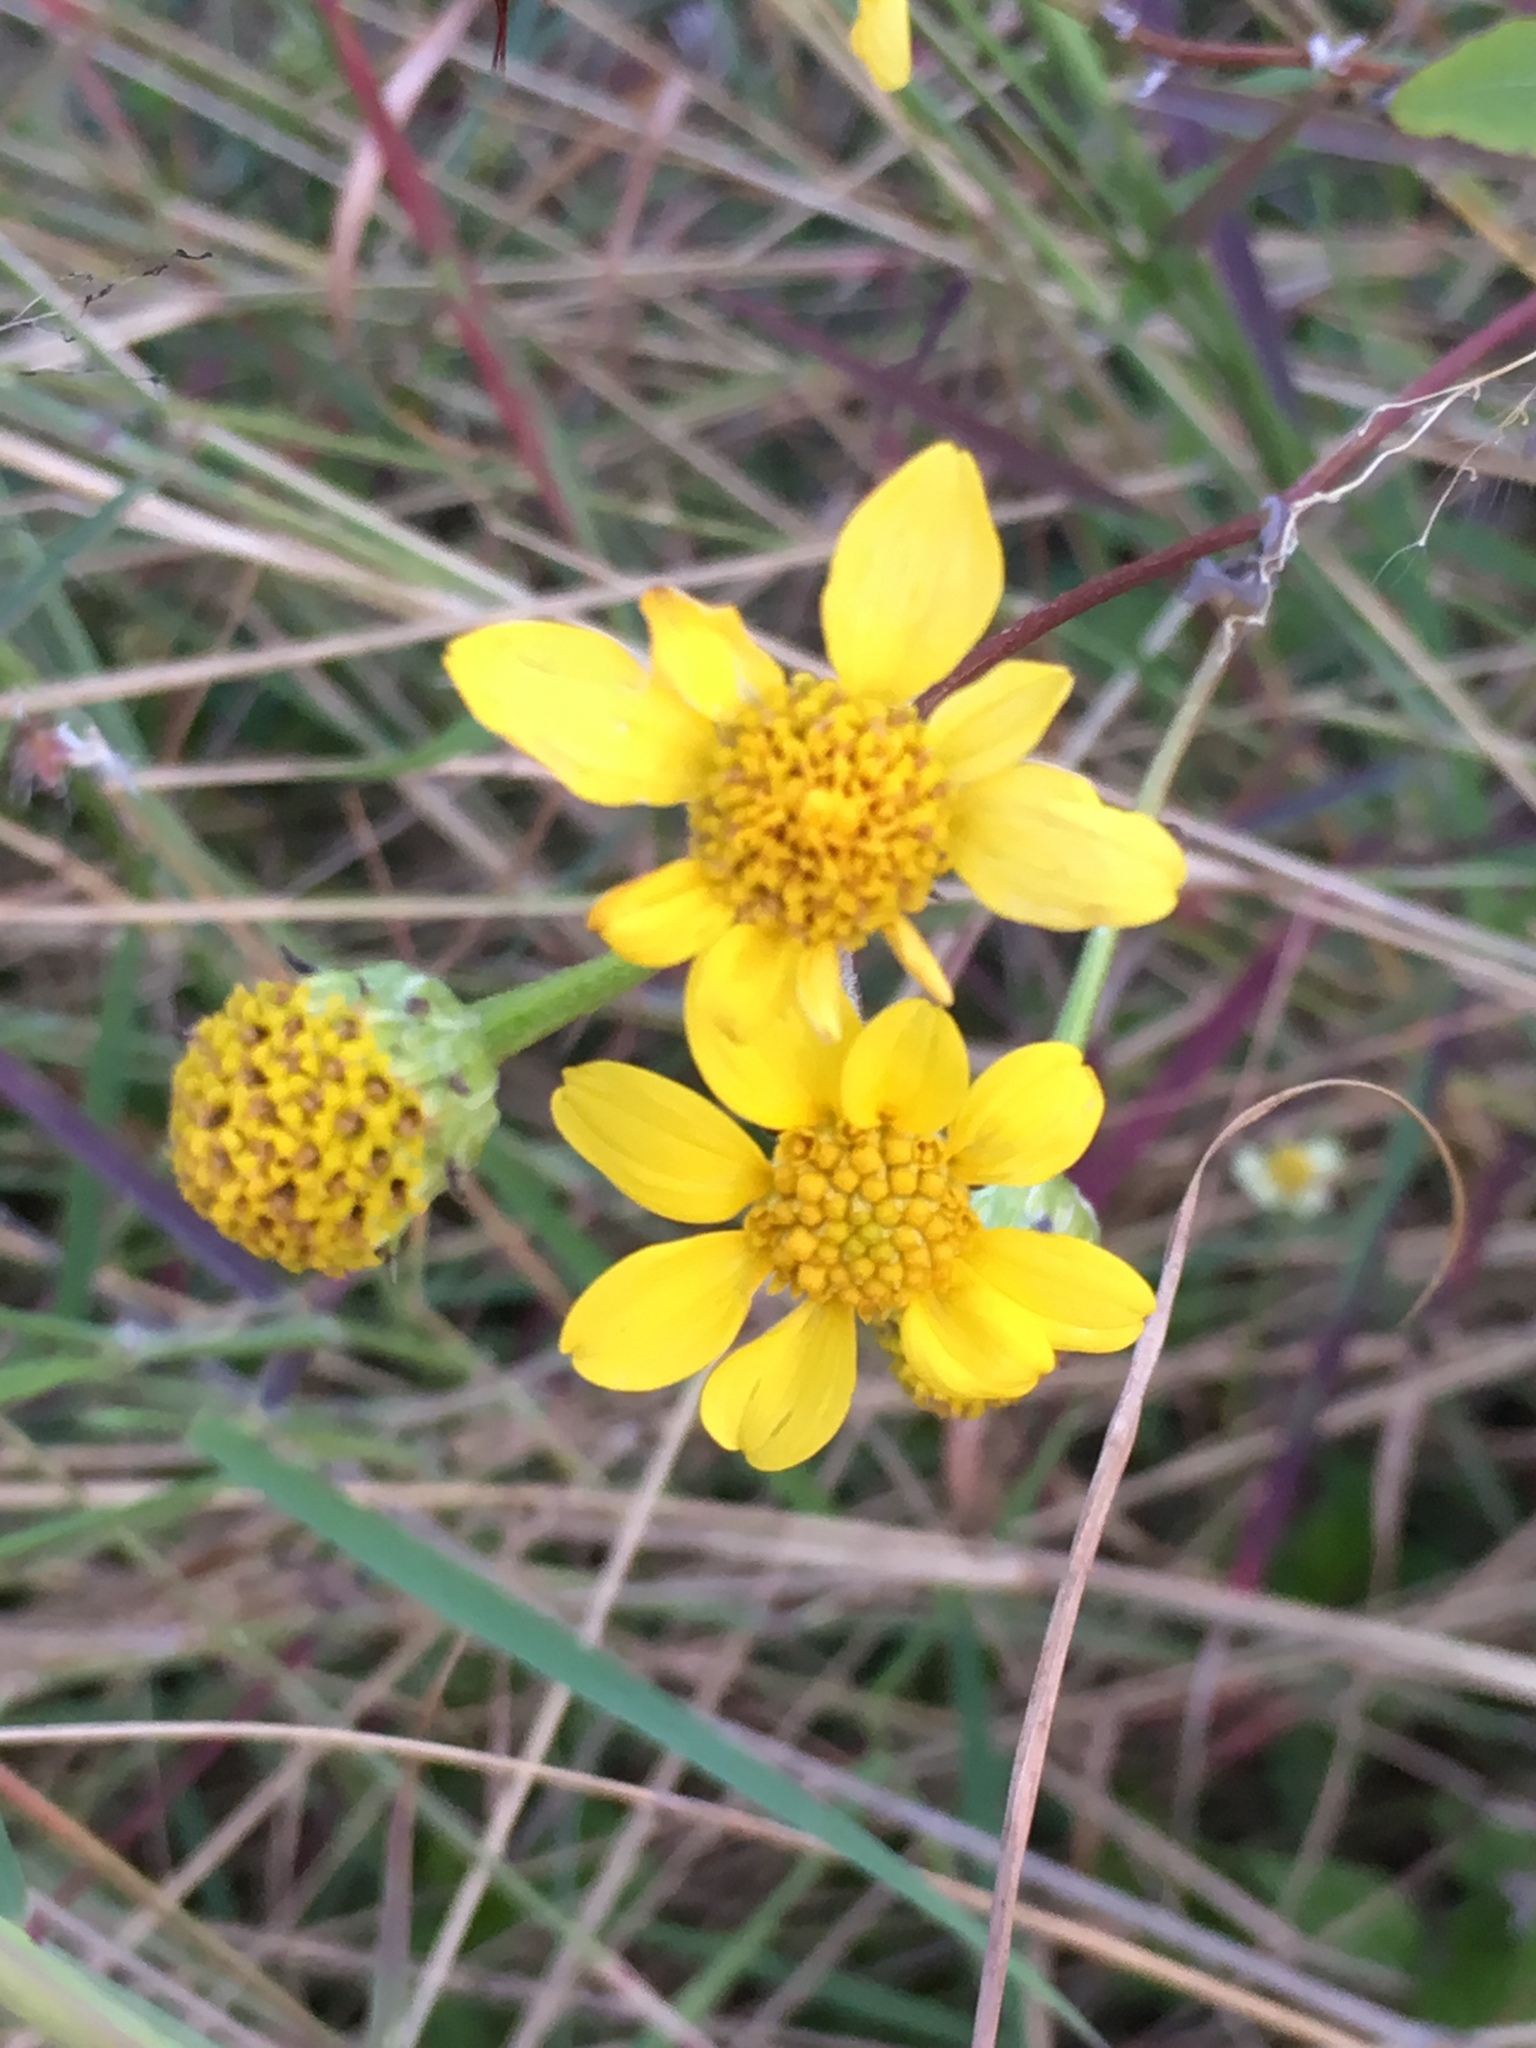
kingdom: Plantae
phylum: Tracheophyta
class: Magnoliopsida
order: Asterales
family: Asteraceae
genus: Viguiera
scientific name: Viguiera dentata
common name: Toothleaf
